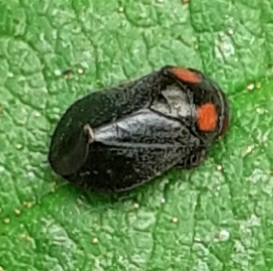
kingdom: Animalia
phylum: Arthropoda
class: Insecta
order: Hemiptera
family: Cicadellidae
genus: Penthimia
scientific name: Penthimia nigra
